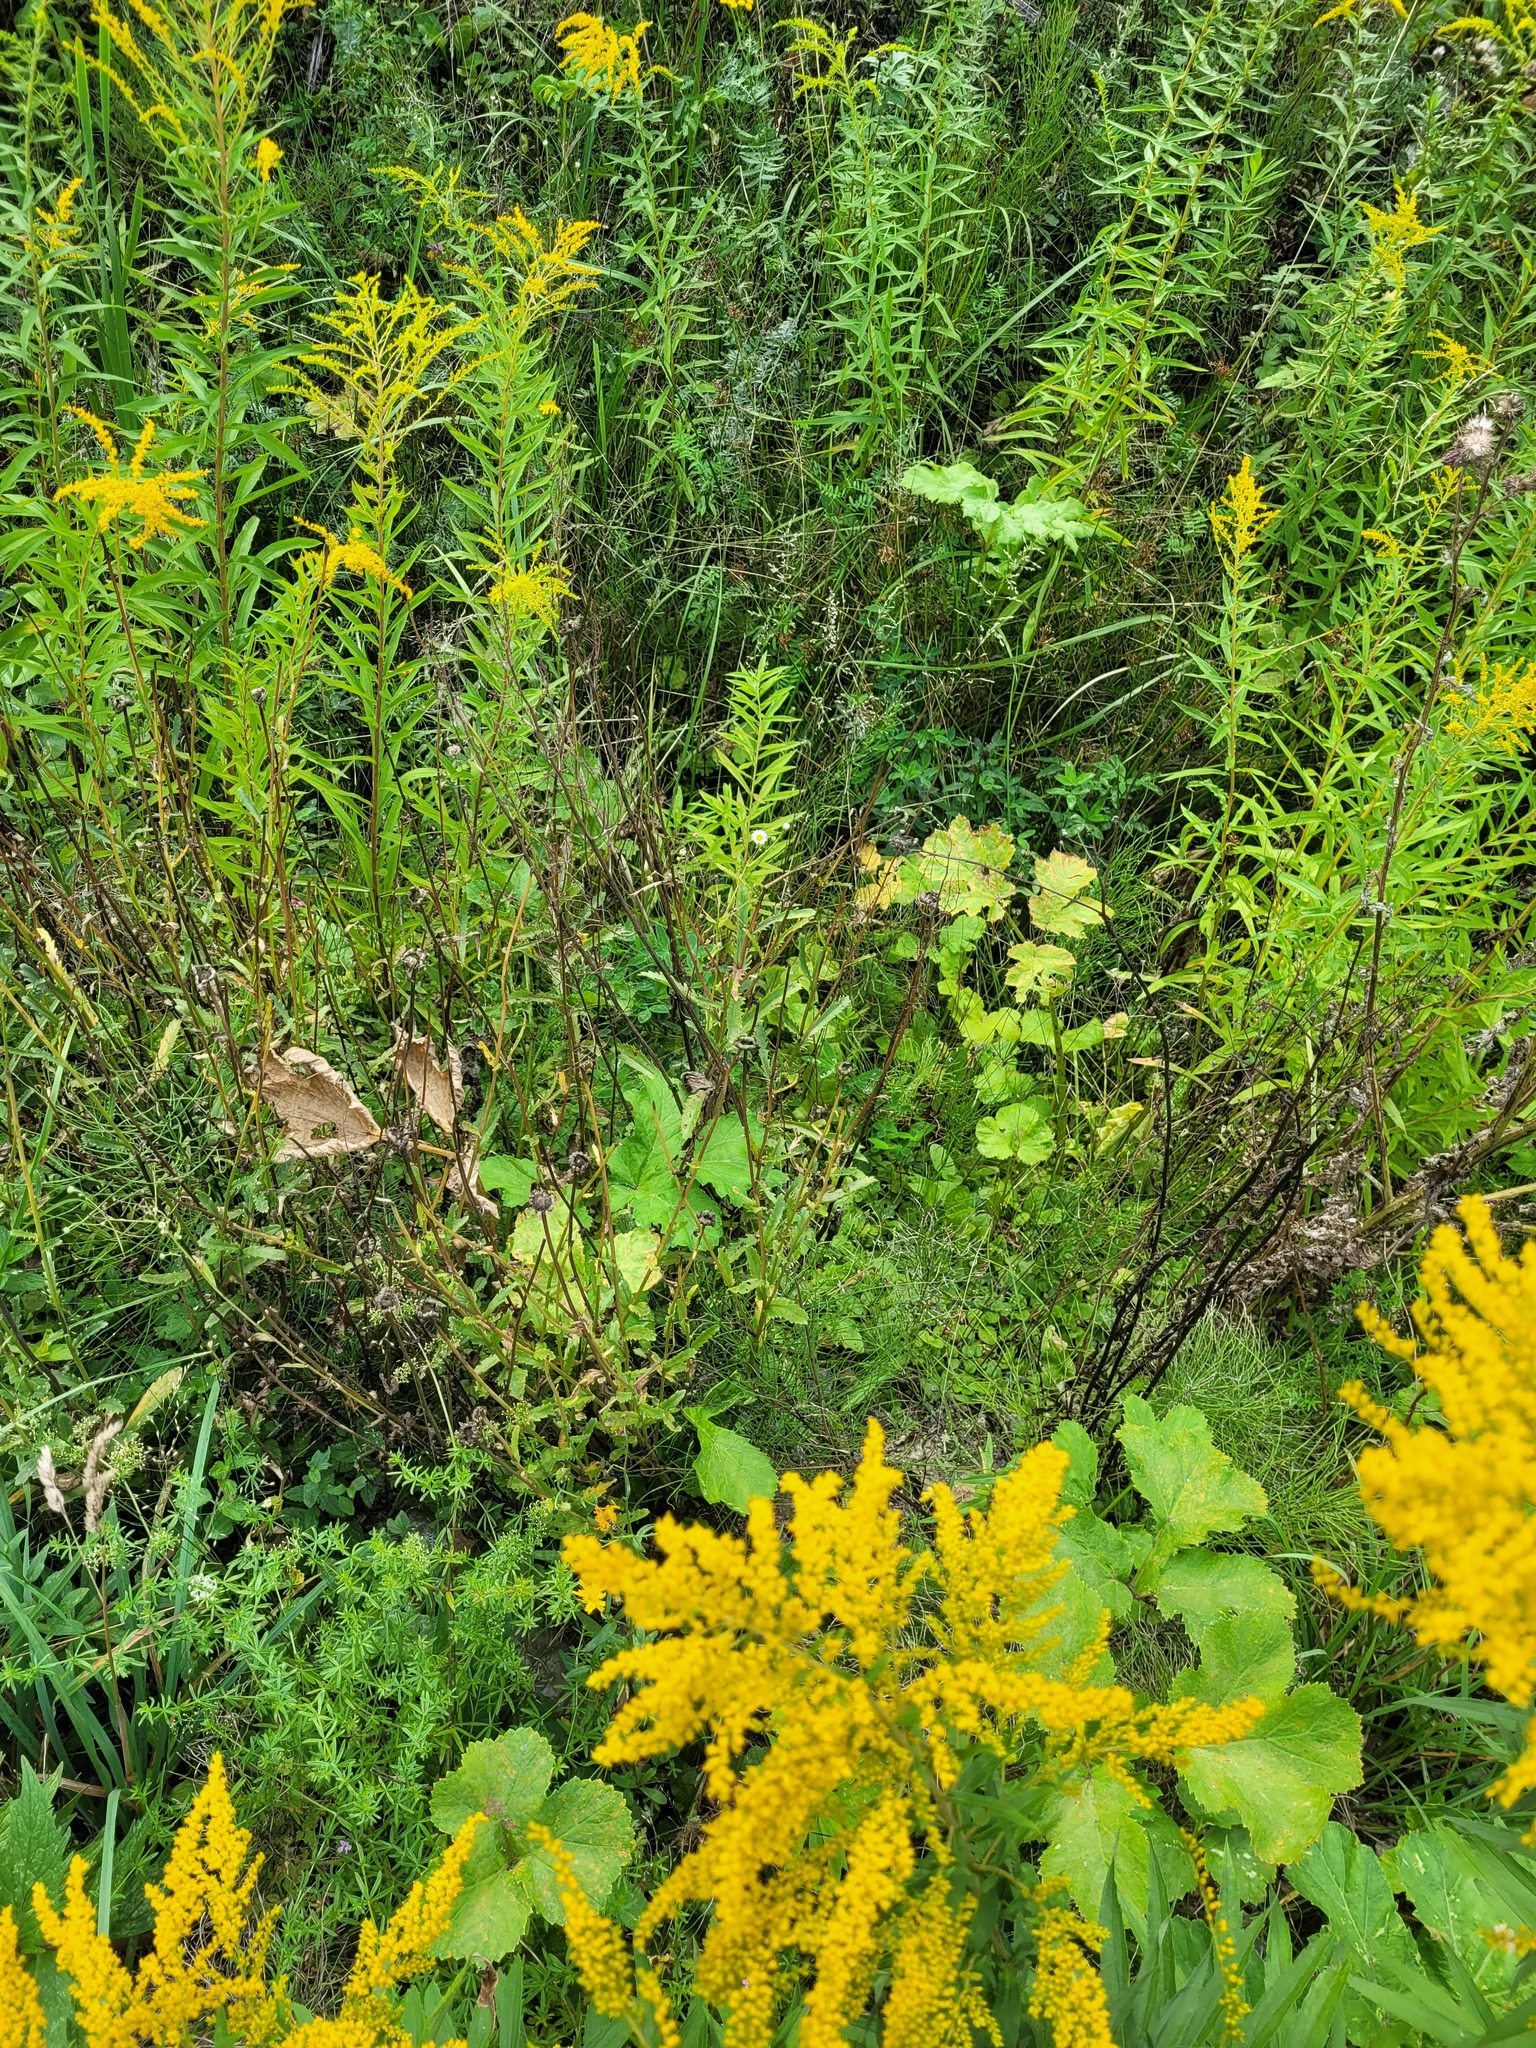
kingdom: Plantae
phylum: Tracheophyta
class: Magnoliopsida
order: Asterales
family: Asteraceae
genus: Leucanthemum
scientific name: Leucanthemum vulgare
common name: Oxeye daisy
